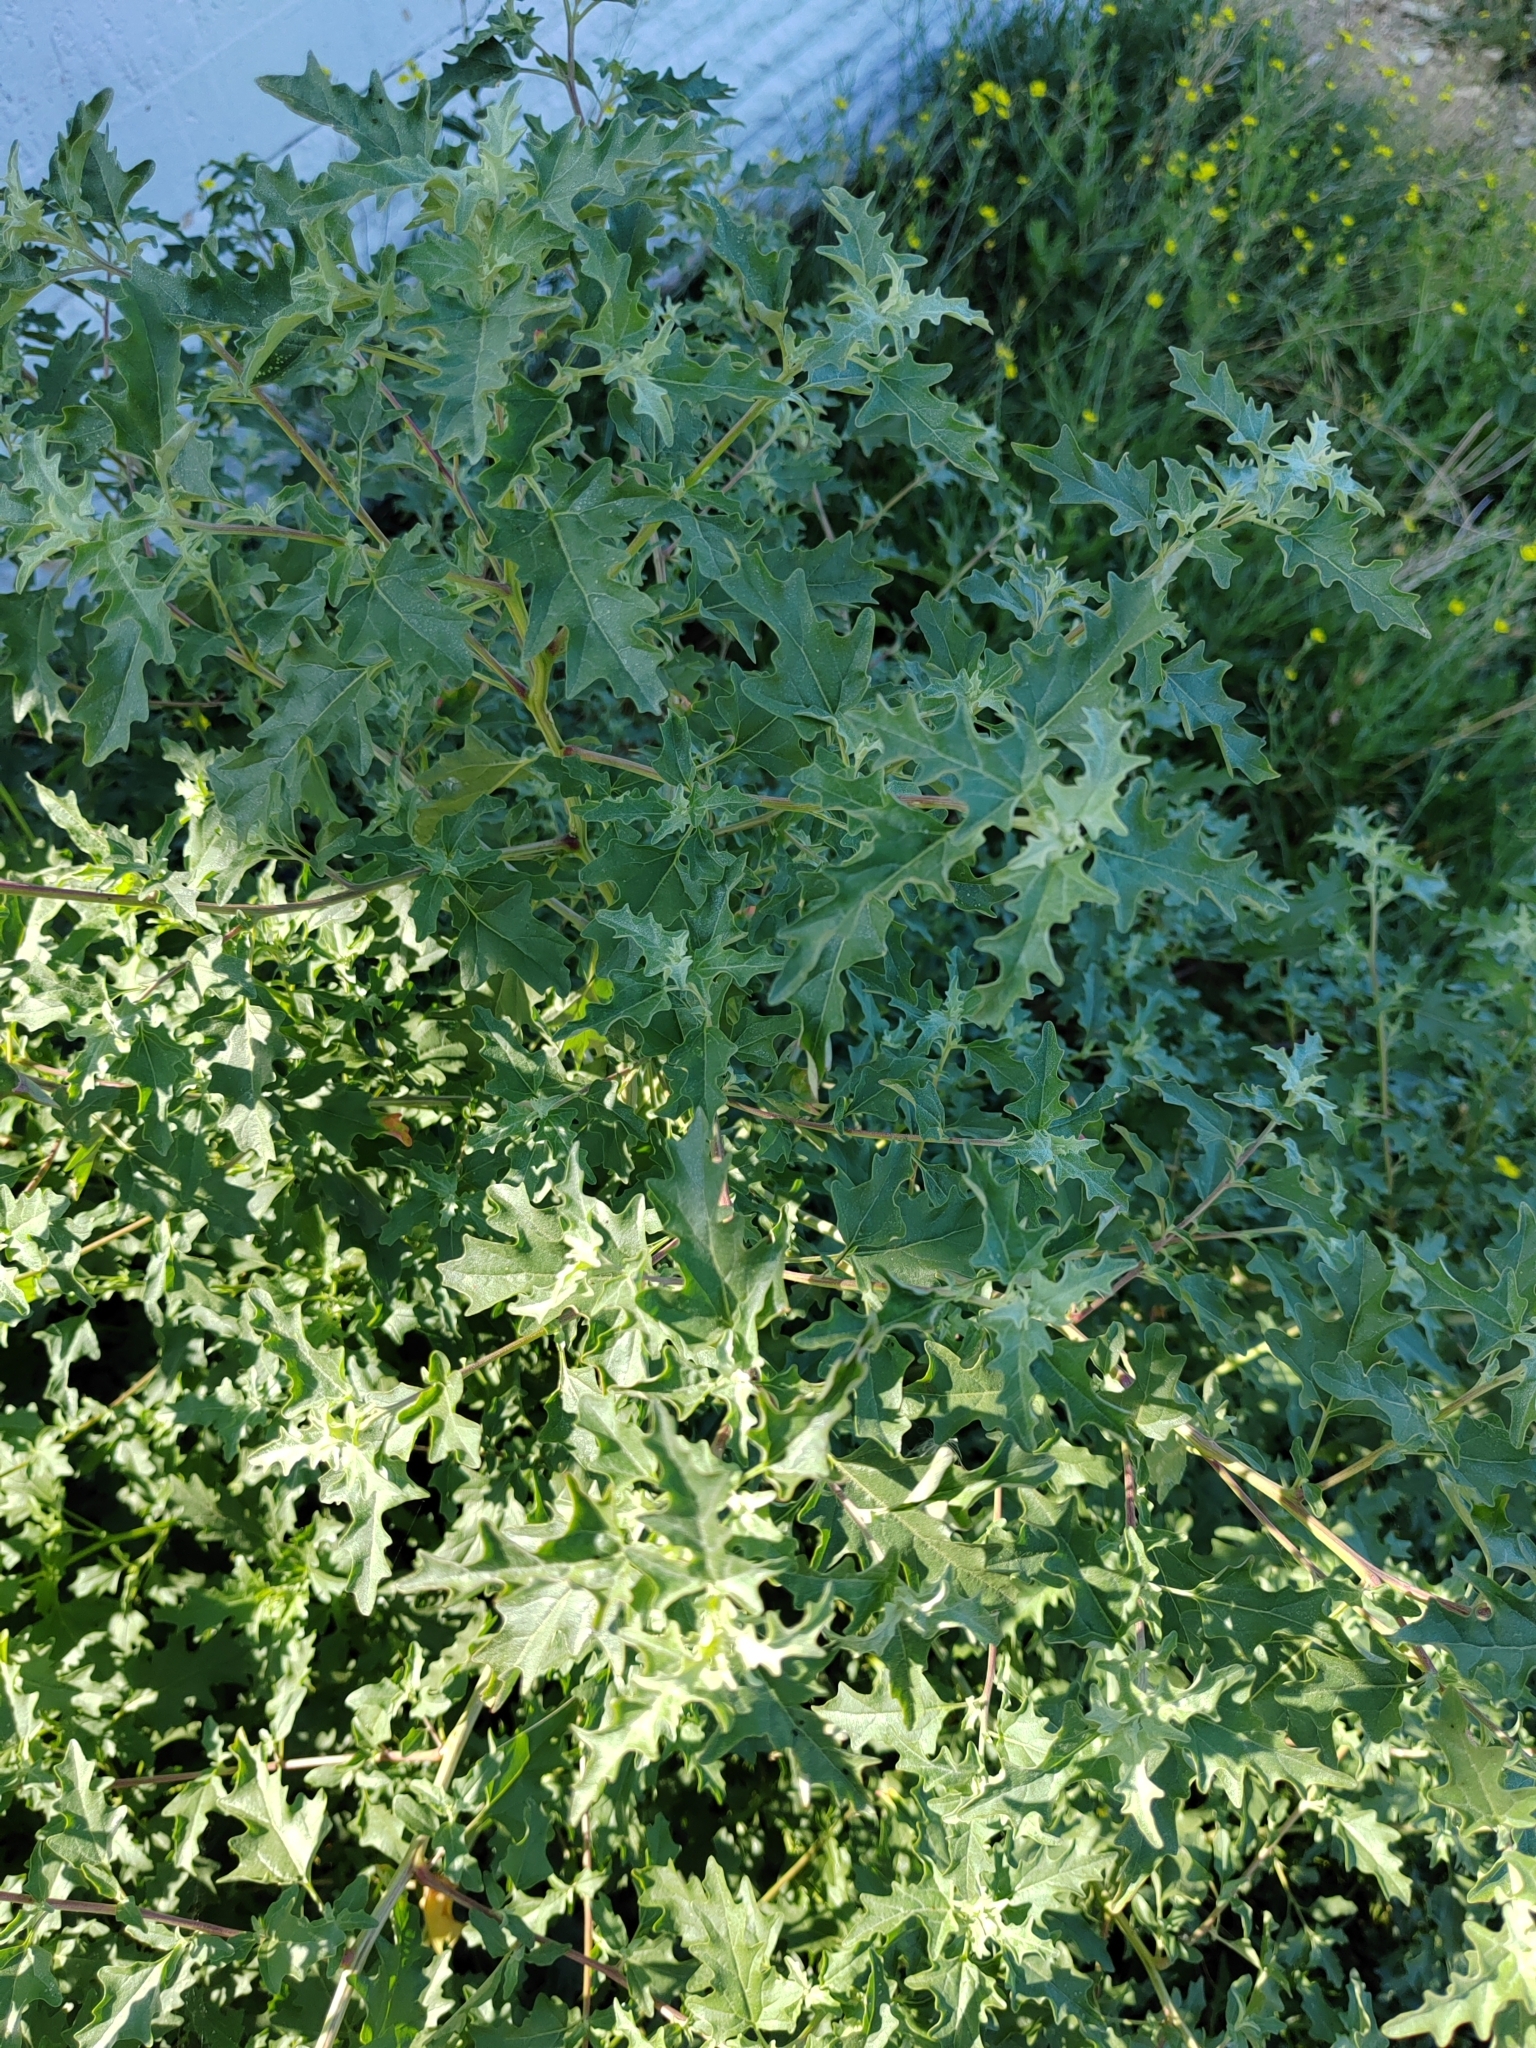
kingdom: Plantae
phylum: Tracheophyta
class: Magnoliopsida
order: Caryophyllales
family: Amaranthaceae
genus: Atriplex
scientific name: Atriplex tatarica
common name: Tatarian orache
